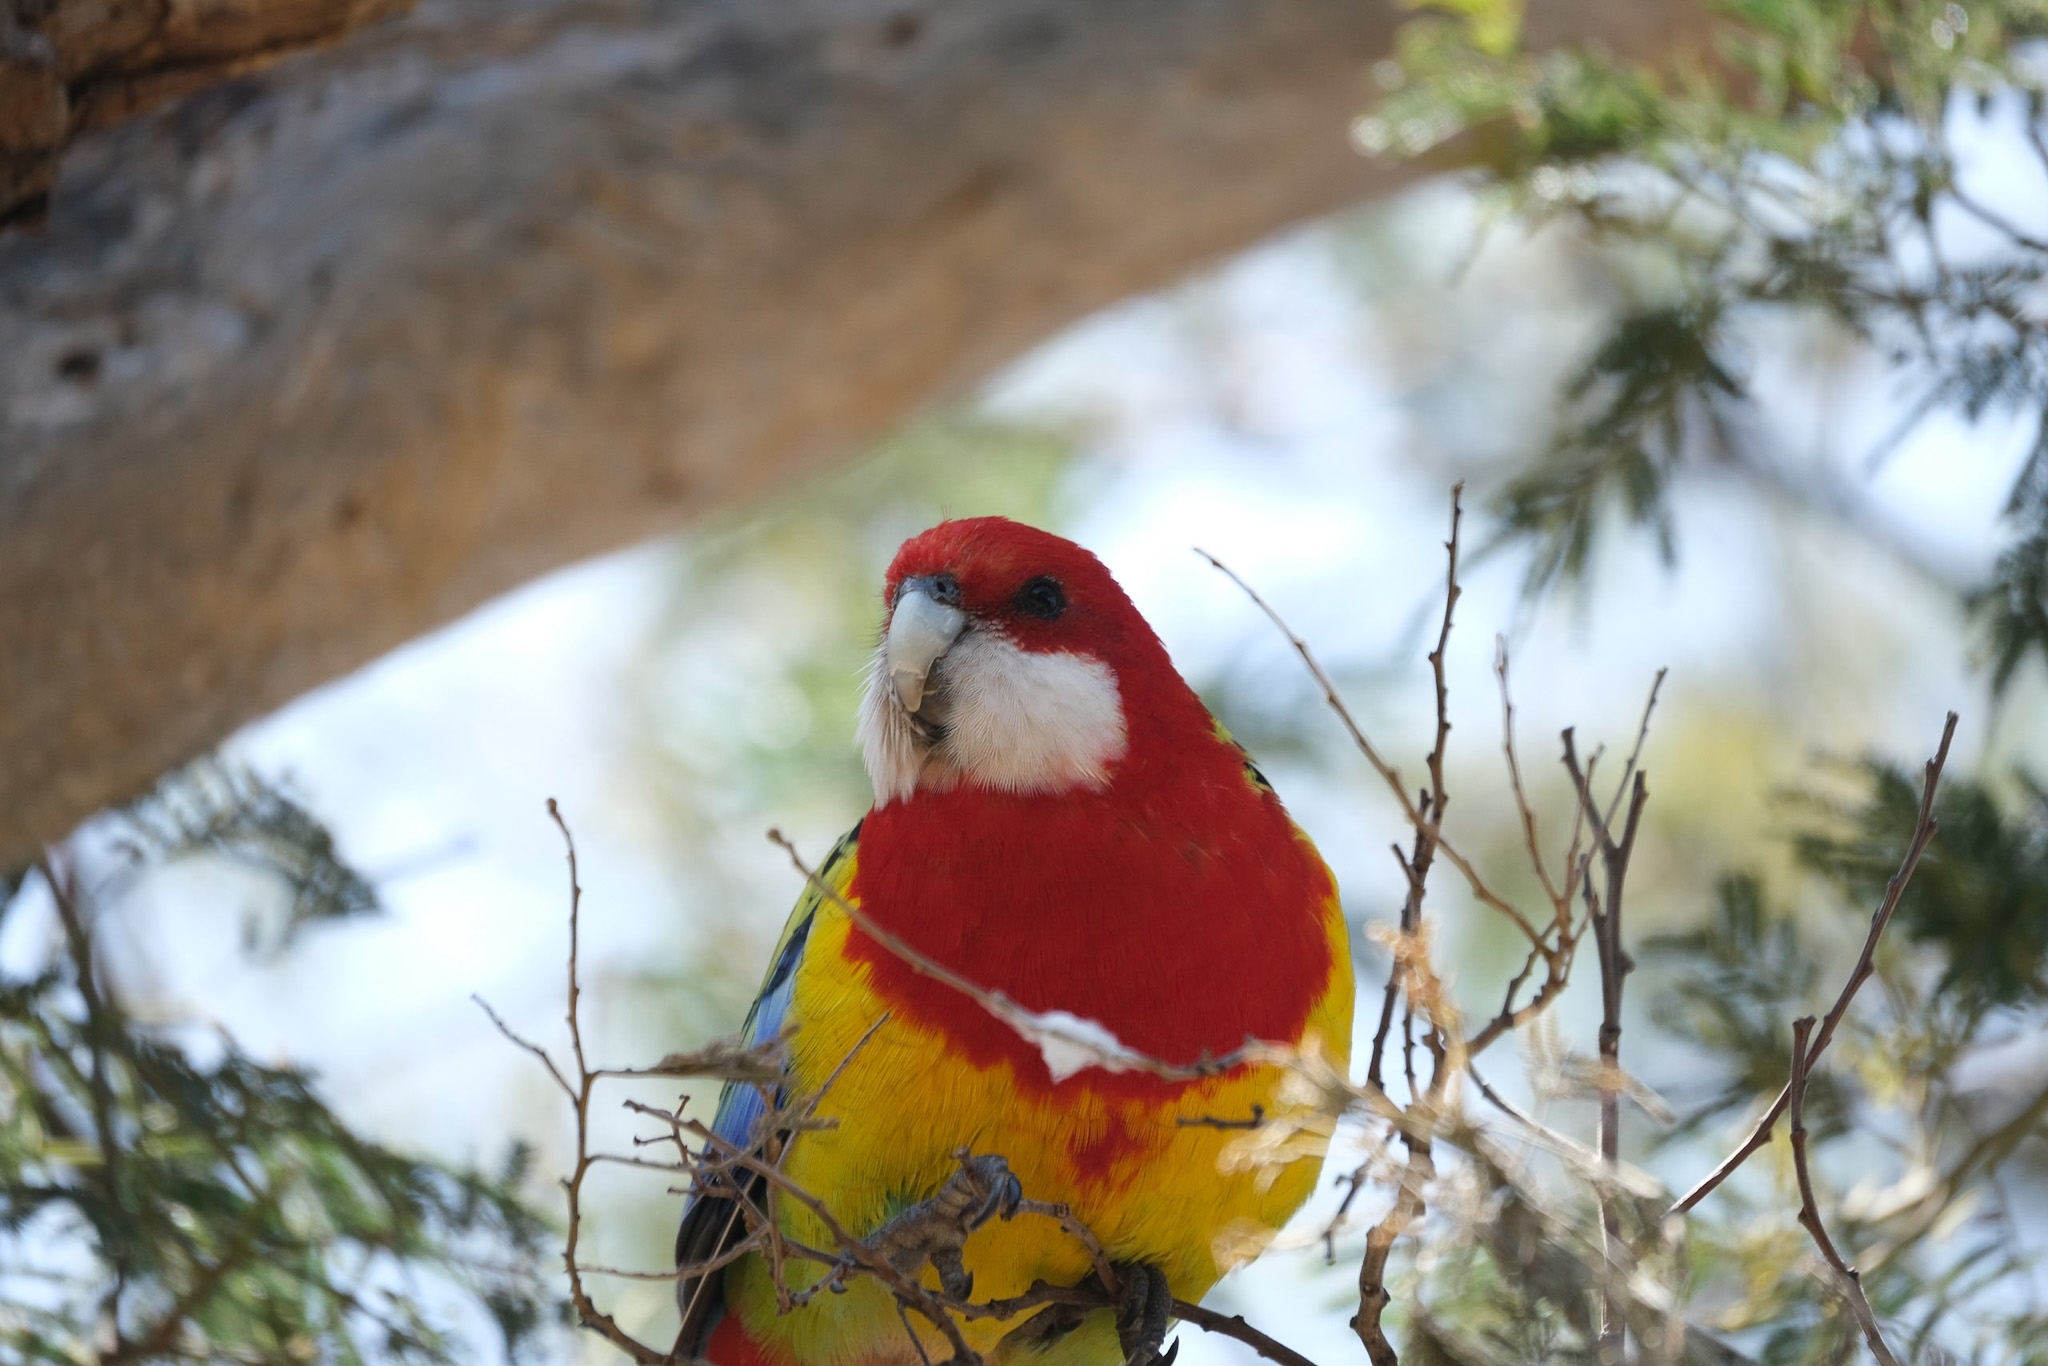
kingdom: Animalia
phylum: Chordata
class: Aves
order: Psittaciformes
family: Psittacidae
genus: Platycercus
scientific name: Platycercus eximius
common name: Eastern rosella
